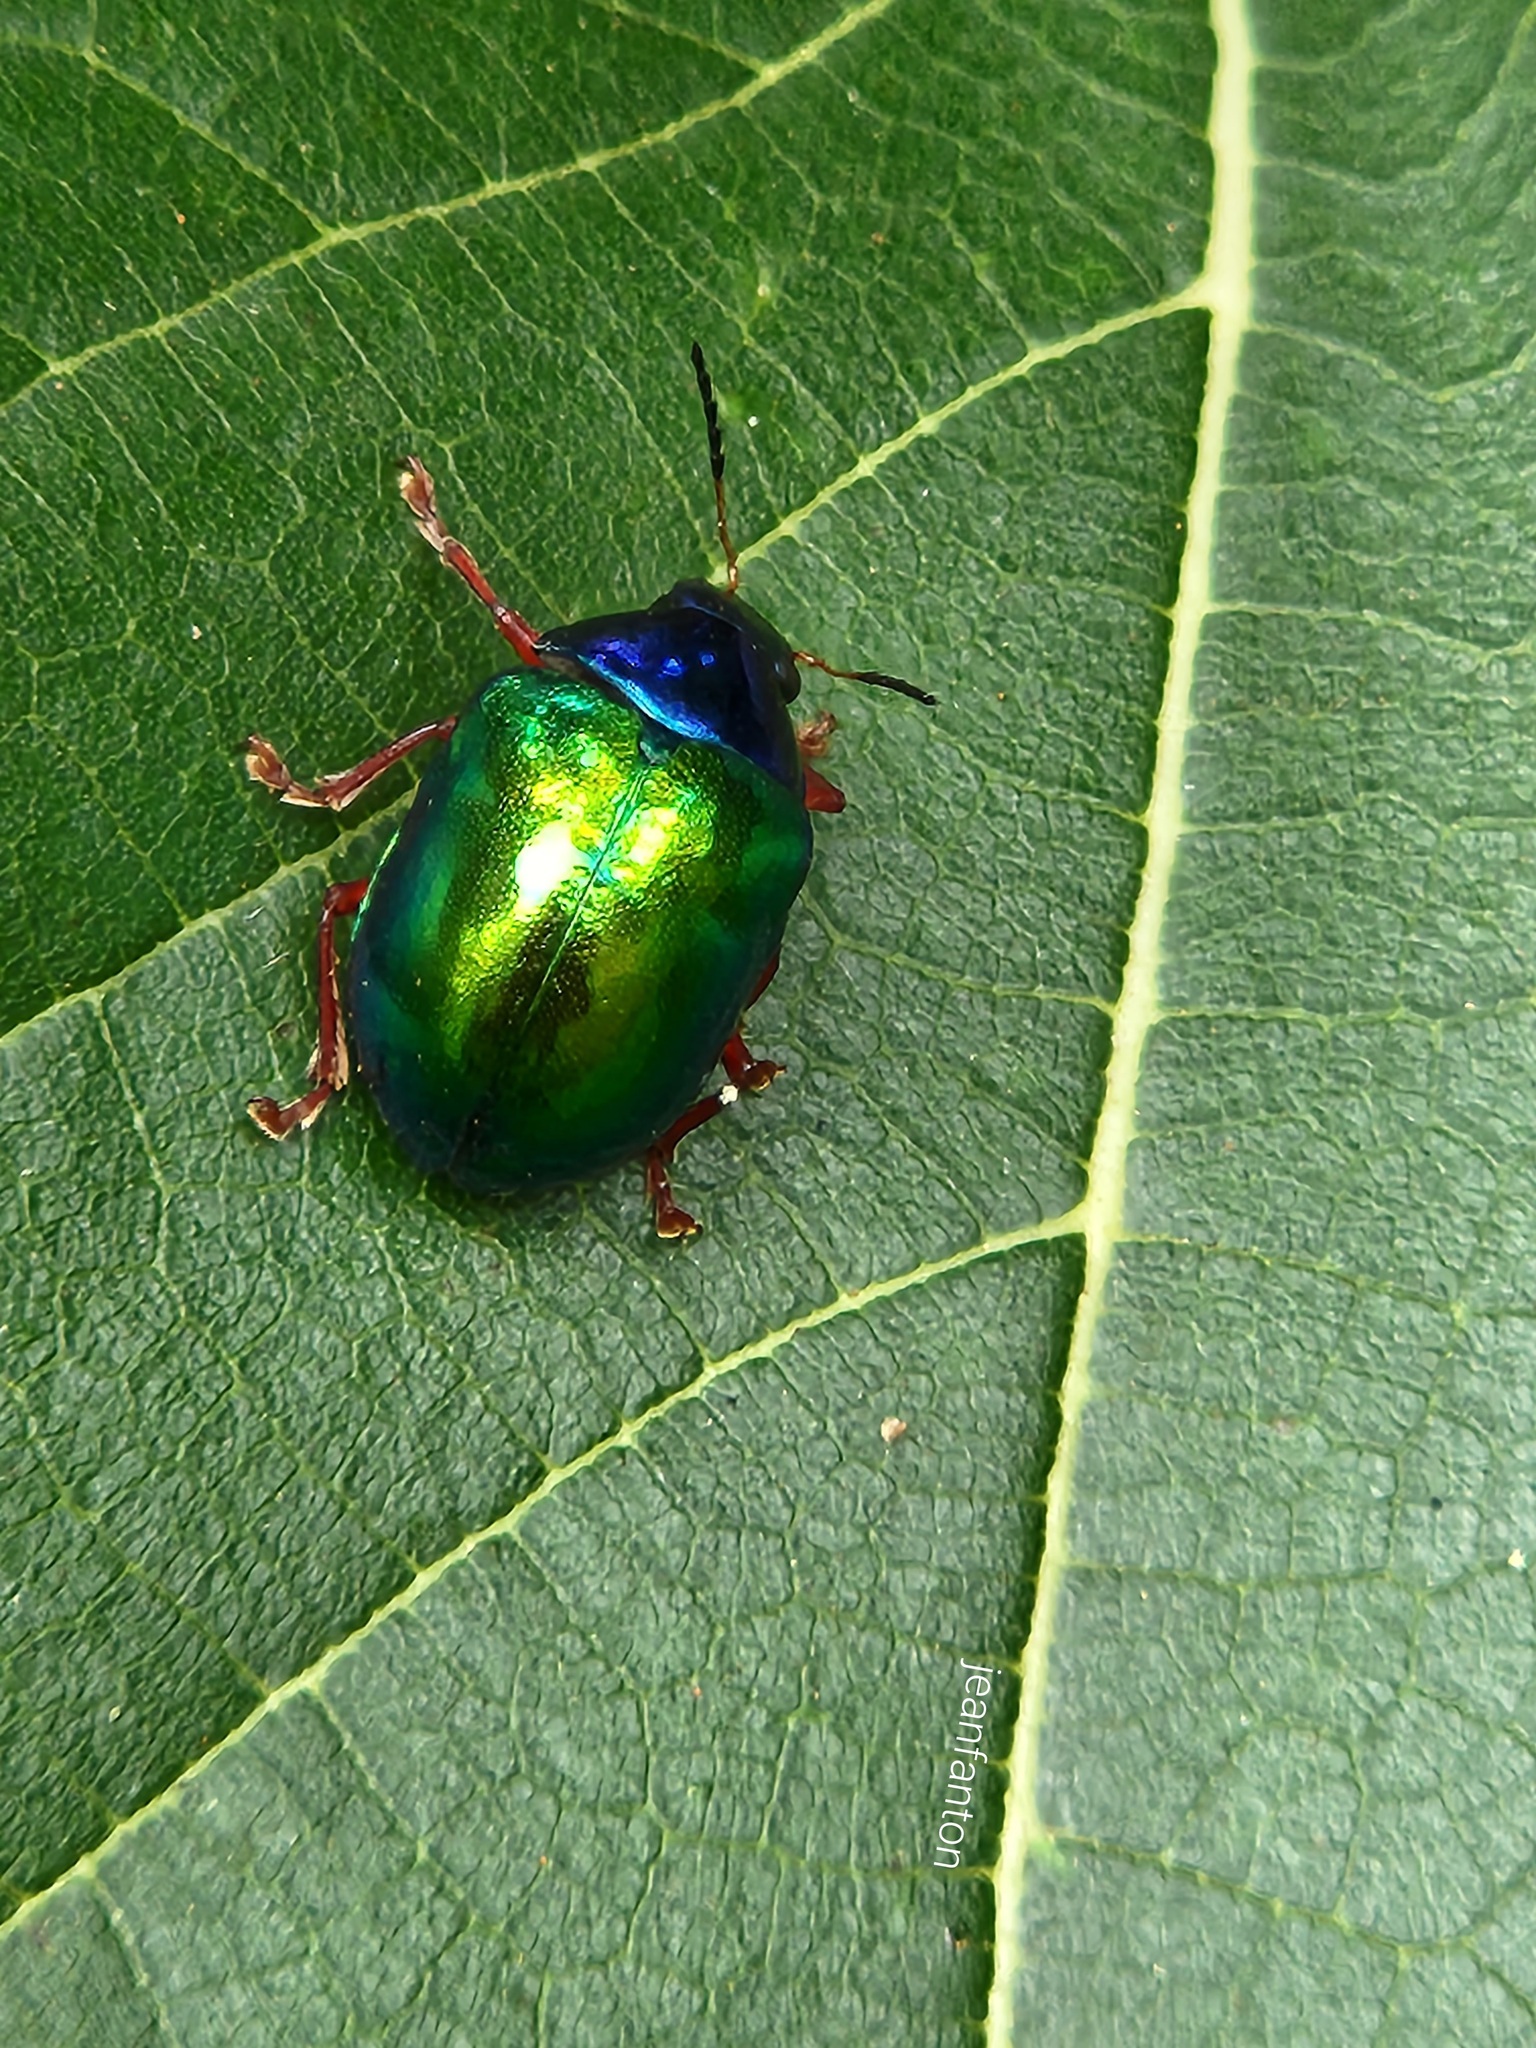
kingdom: Animalia
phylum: Arthropoda
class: Insecta
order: Coleoptera
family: Chrysomelidae
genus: Iphimeis
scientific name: Iphimeis
